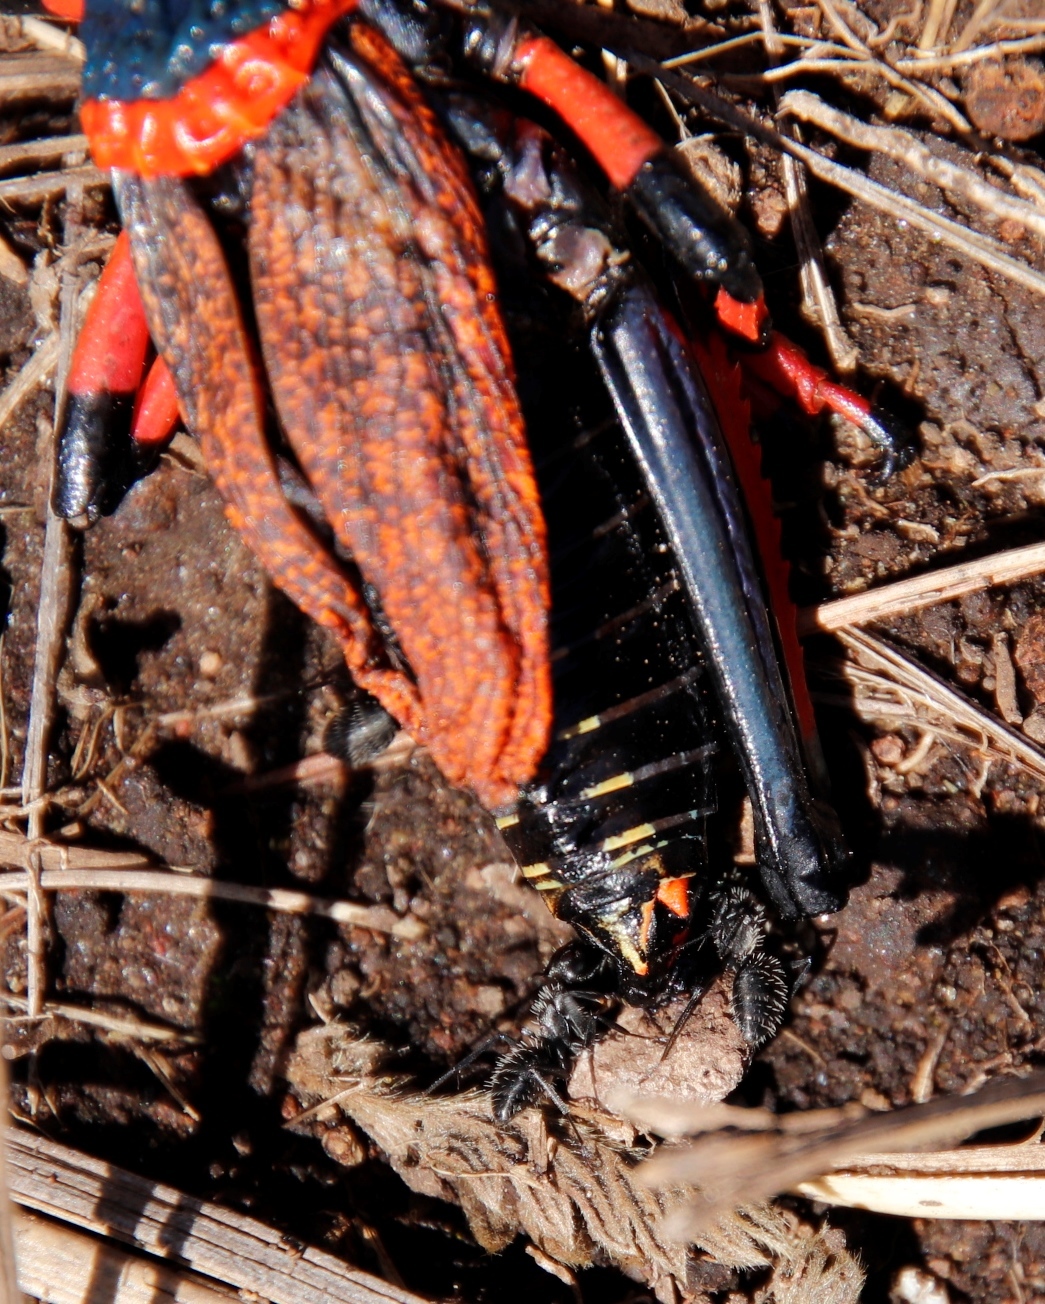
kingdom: Animalia
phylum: Arthropoda
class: Insecta
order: Hymenoptera
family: Formicidae
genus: Camponotus
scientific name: Camponotus niveosetosus
